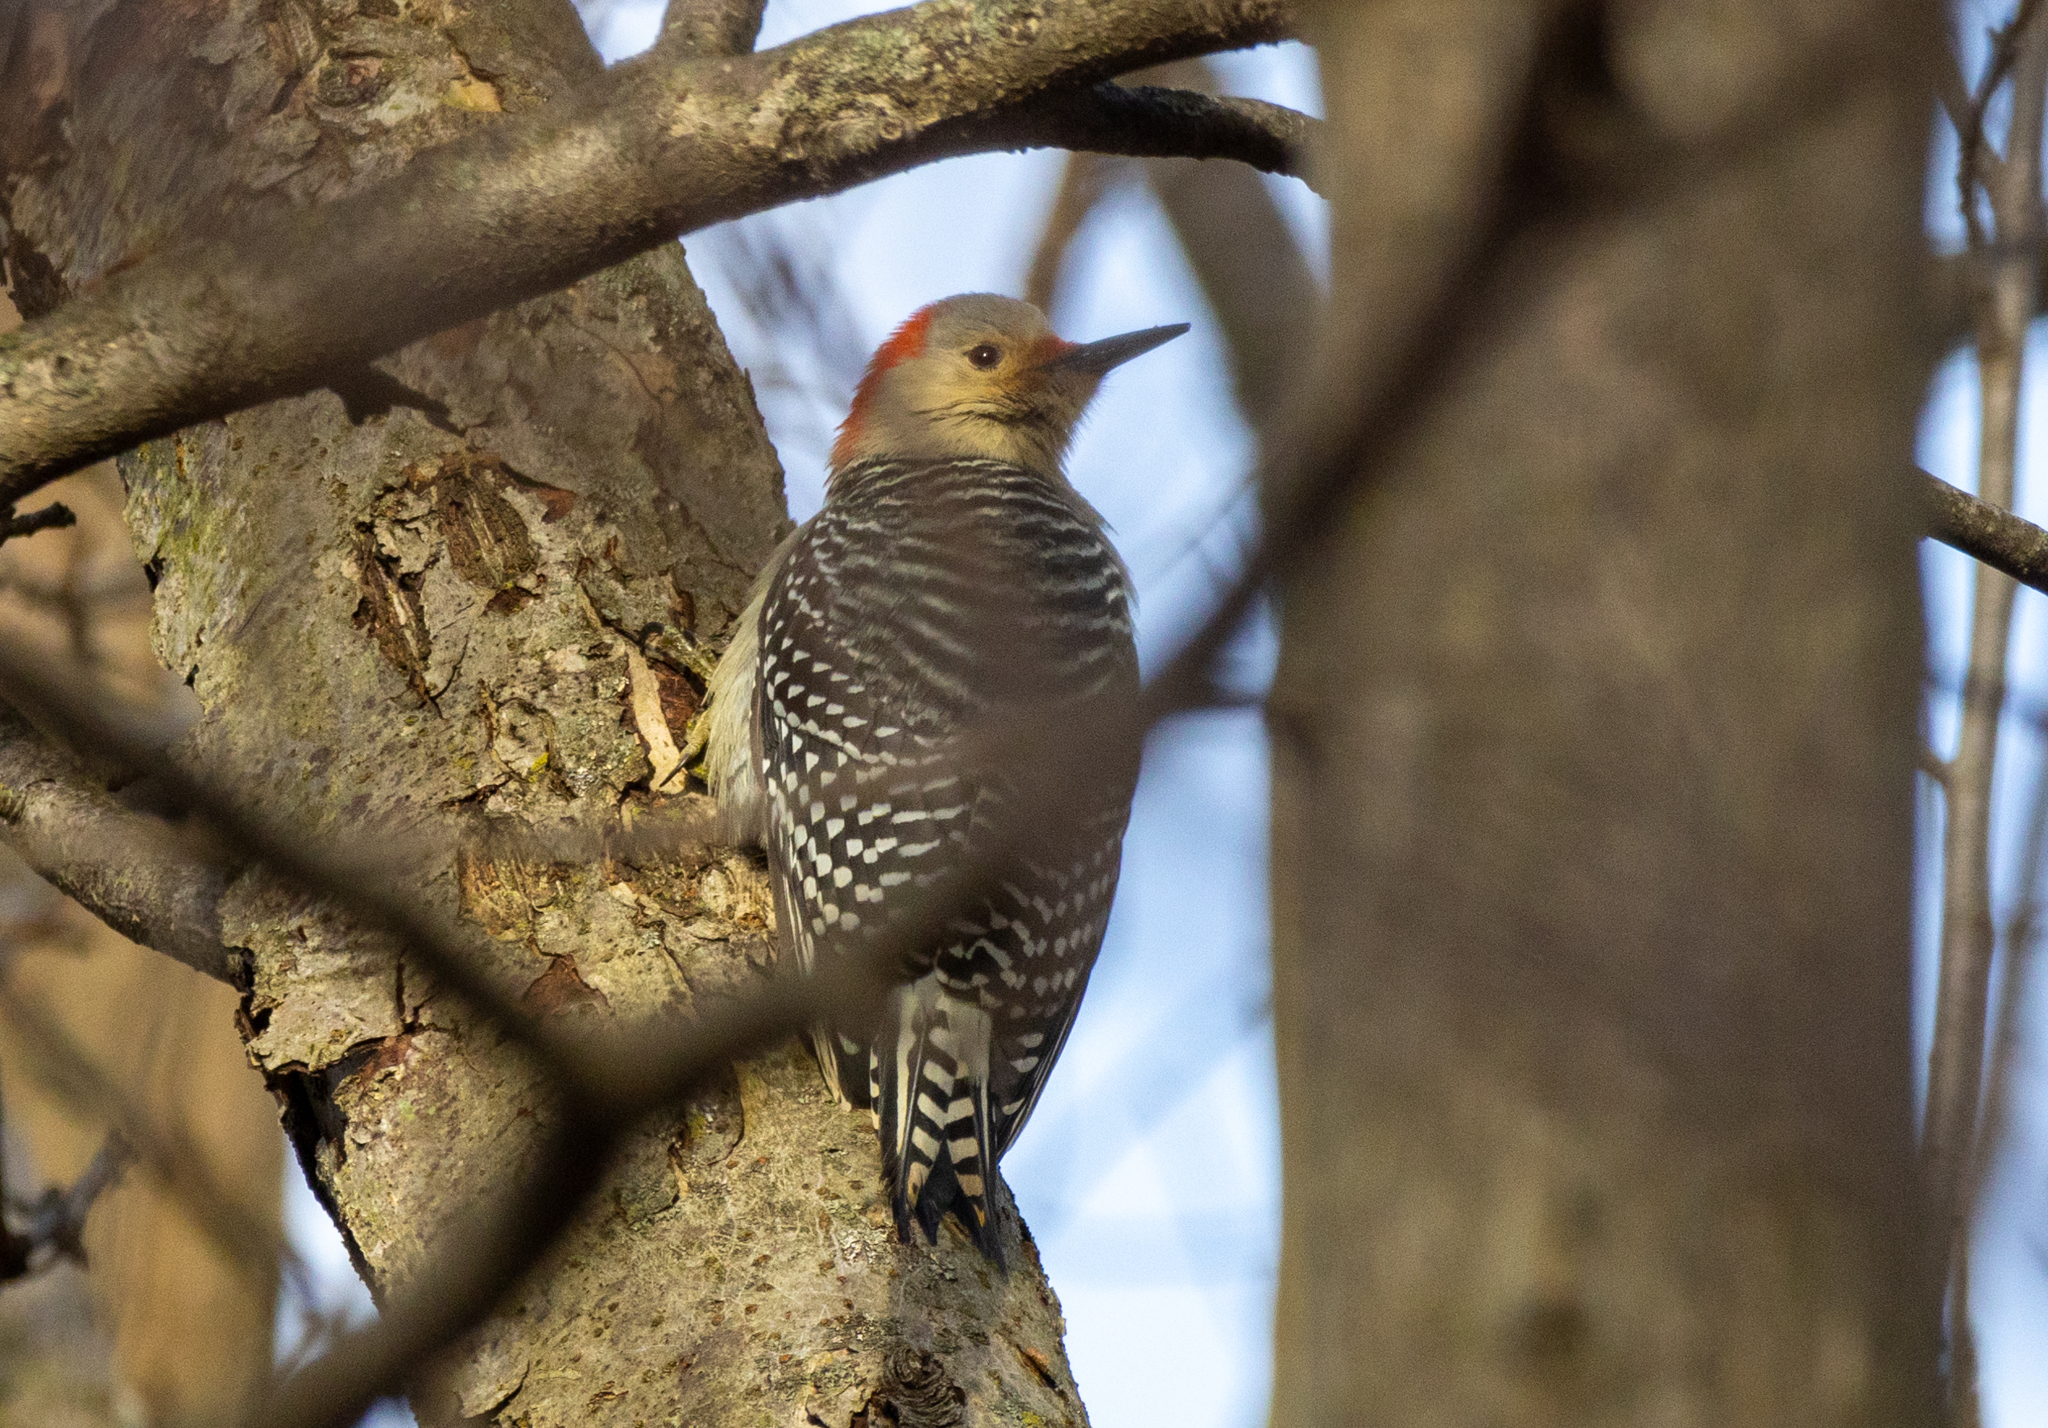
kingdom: Animalia
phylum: Chordata
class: Aves
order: Piciformes
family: Picidae
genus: Melanerpes
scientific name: Melanerpes carolinus
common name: Red-bellied woodpecker
